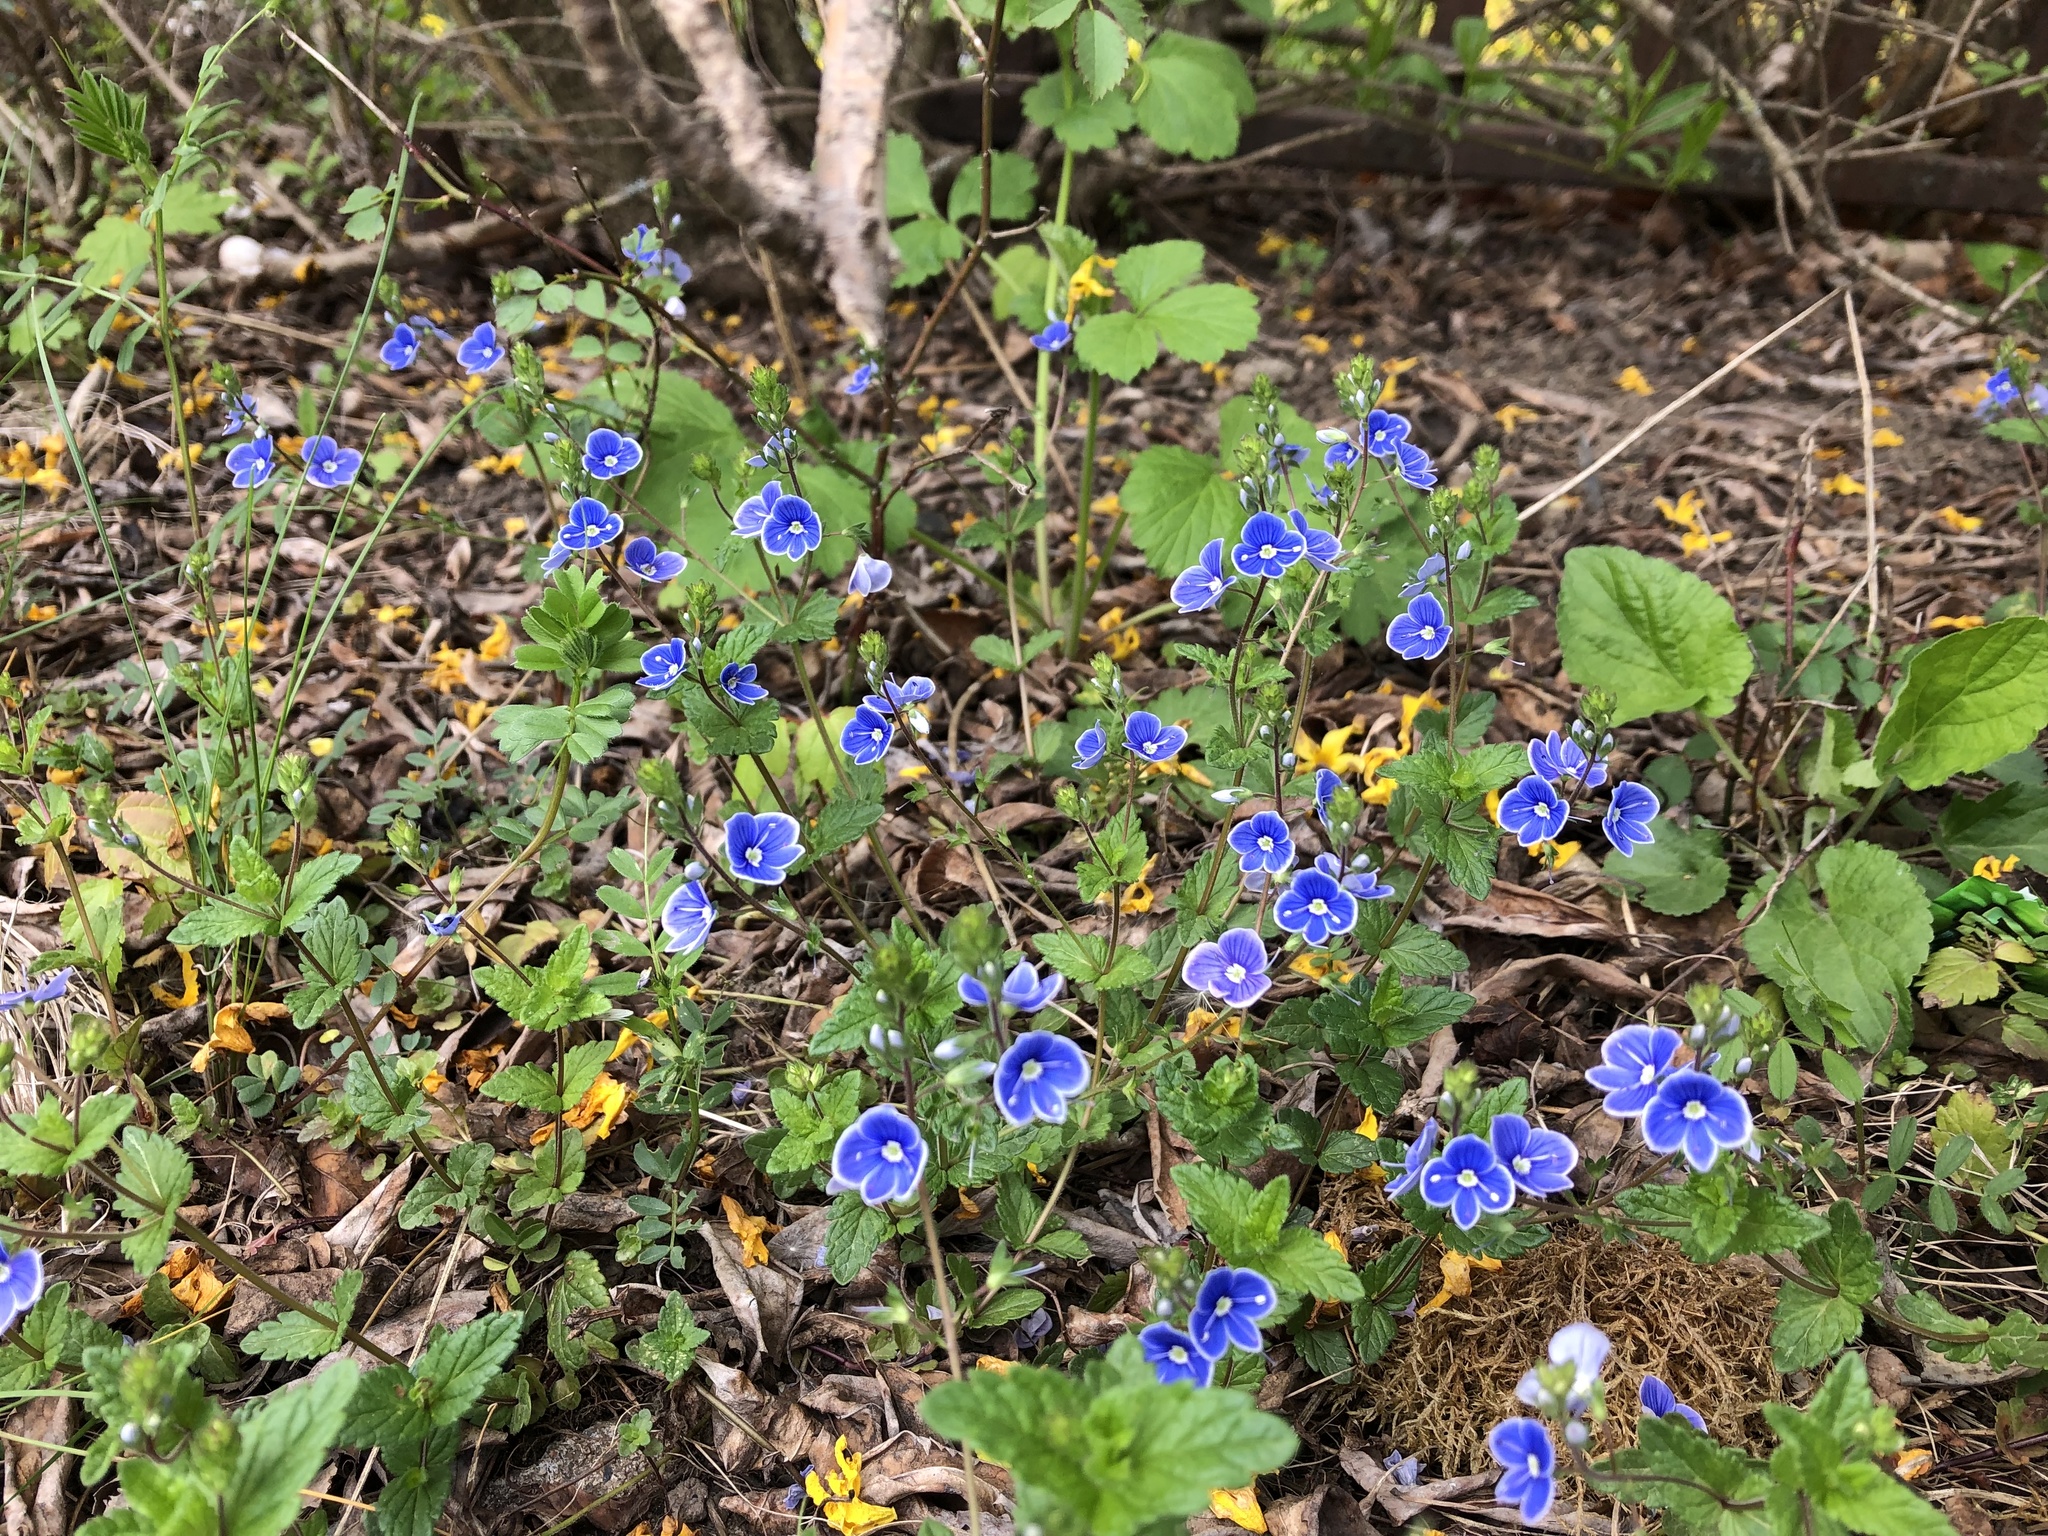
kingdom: Plantae
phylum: Tracheophyta
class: Magnoliopsida
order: Lamiales
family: Plantaginaceae
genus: Veronica
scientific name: Veronica chamaedrys
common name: Germander speedwell
